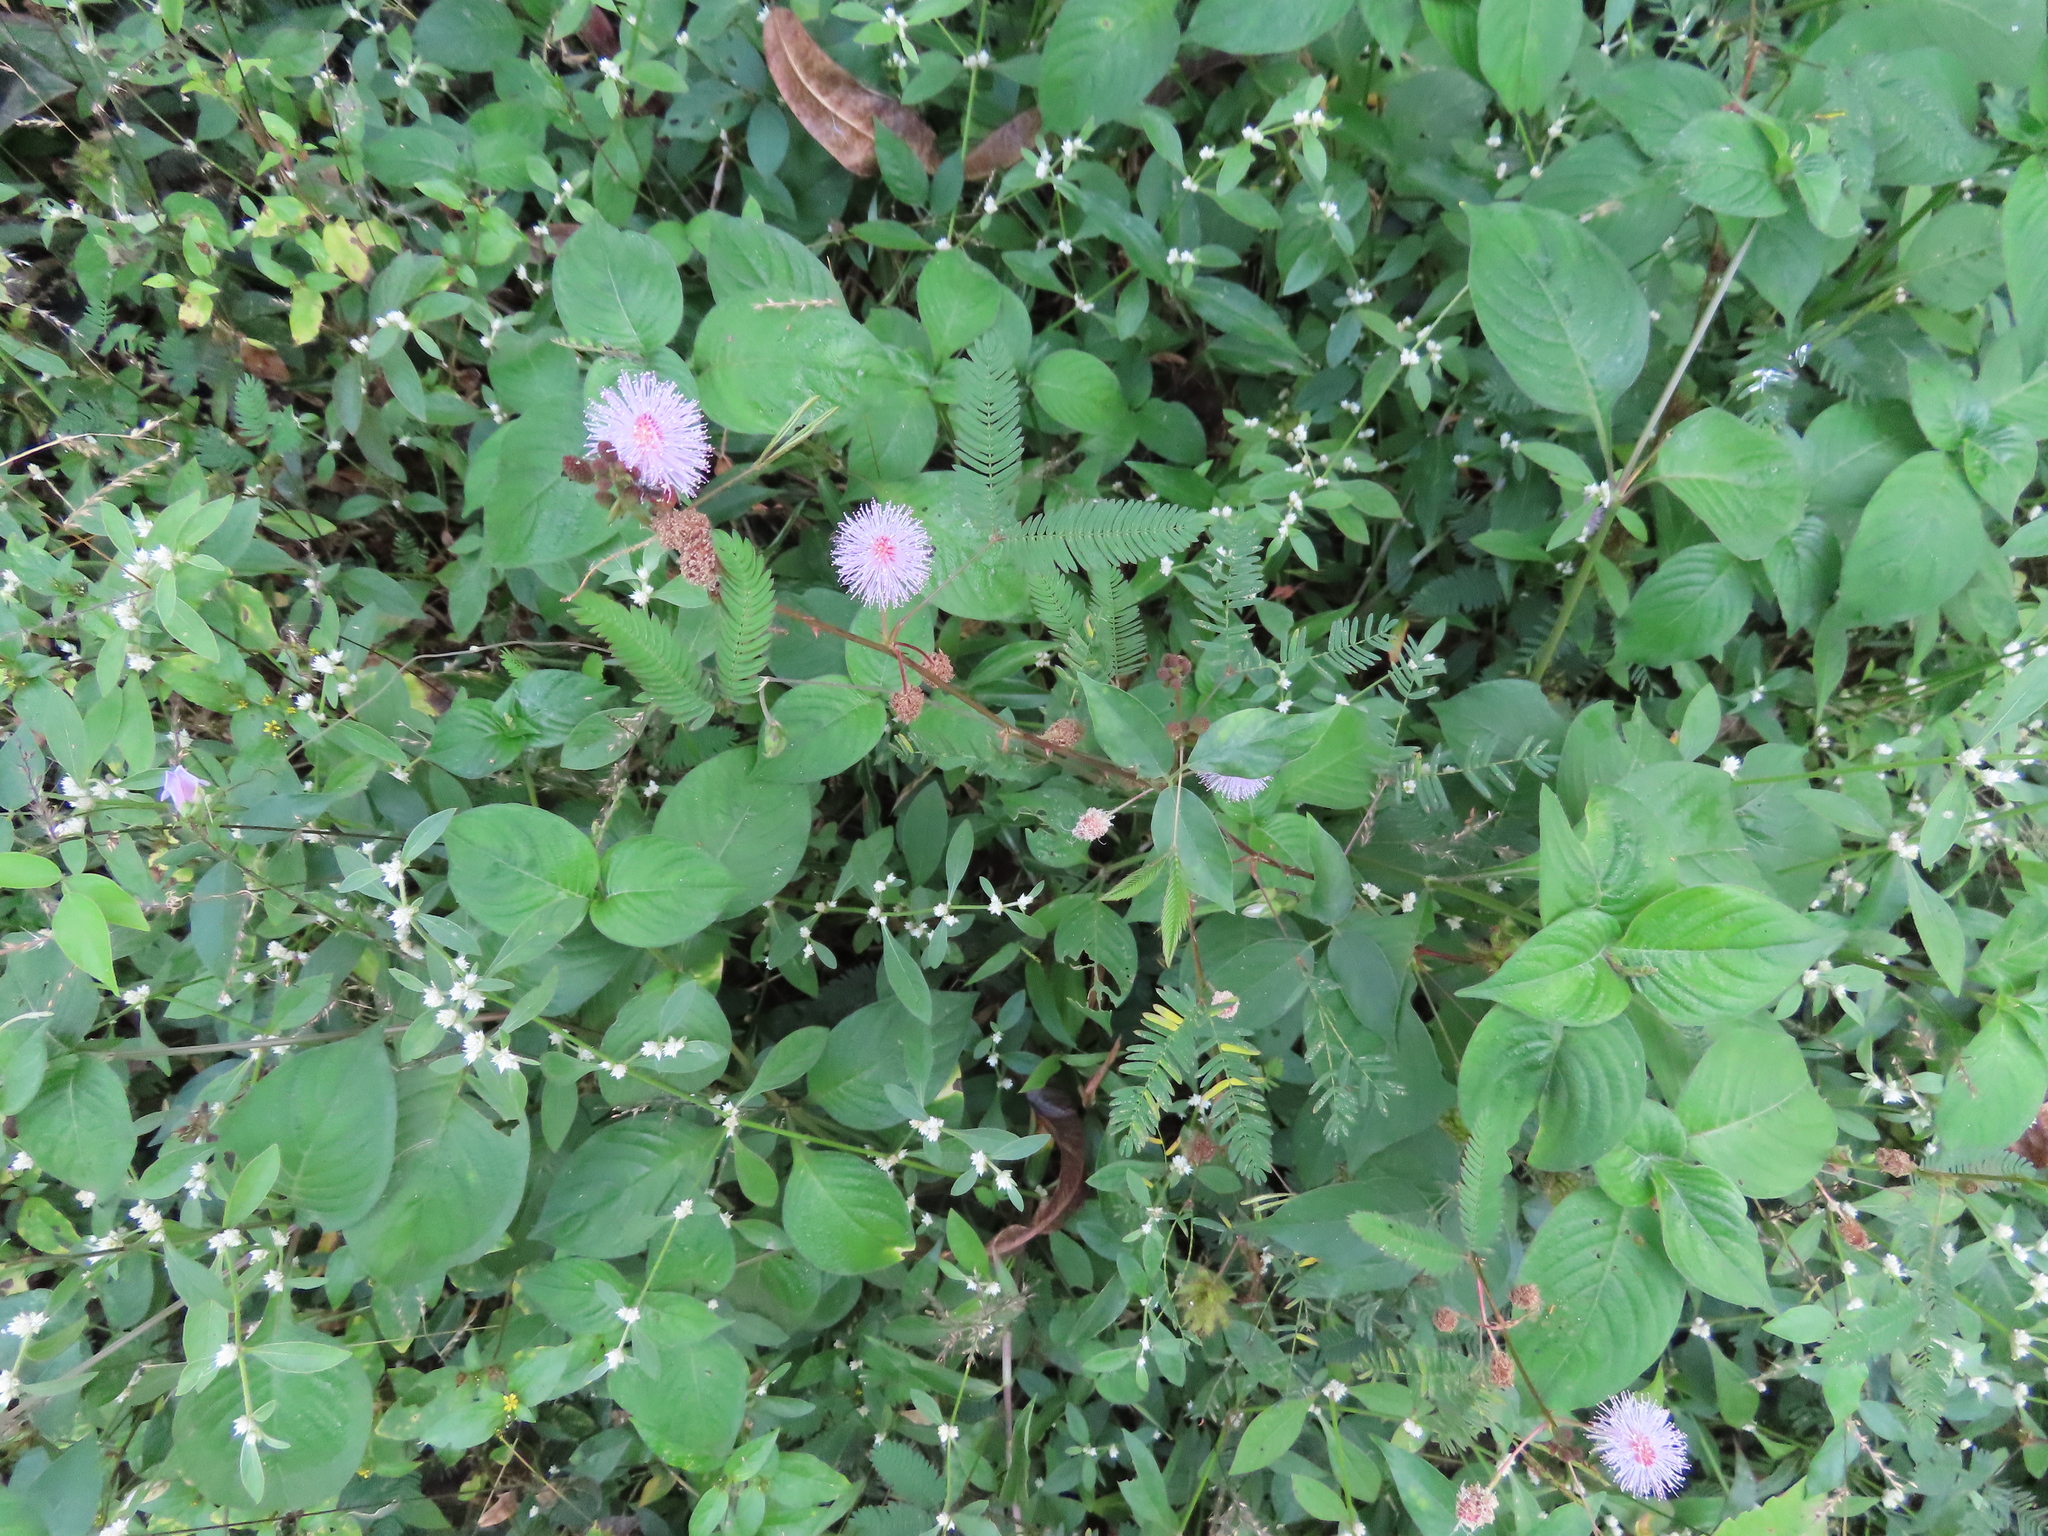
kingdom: Plantae
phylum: Tracheophyta
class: Magnoliopsida
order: Fabales
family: Fabaceae
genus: Mimosa
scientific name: Mimosa pudica
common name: Sensitive plant
